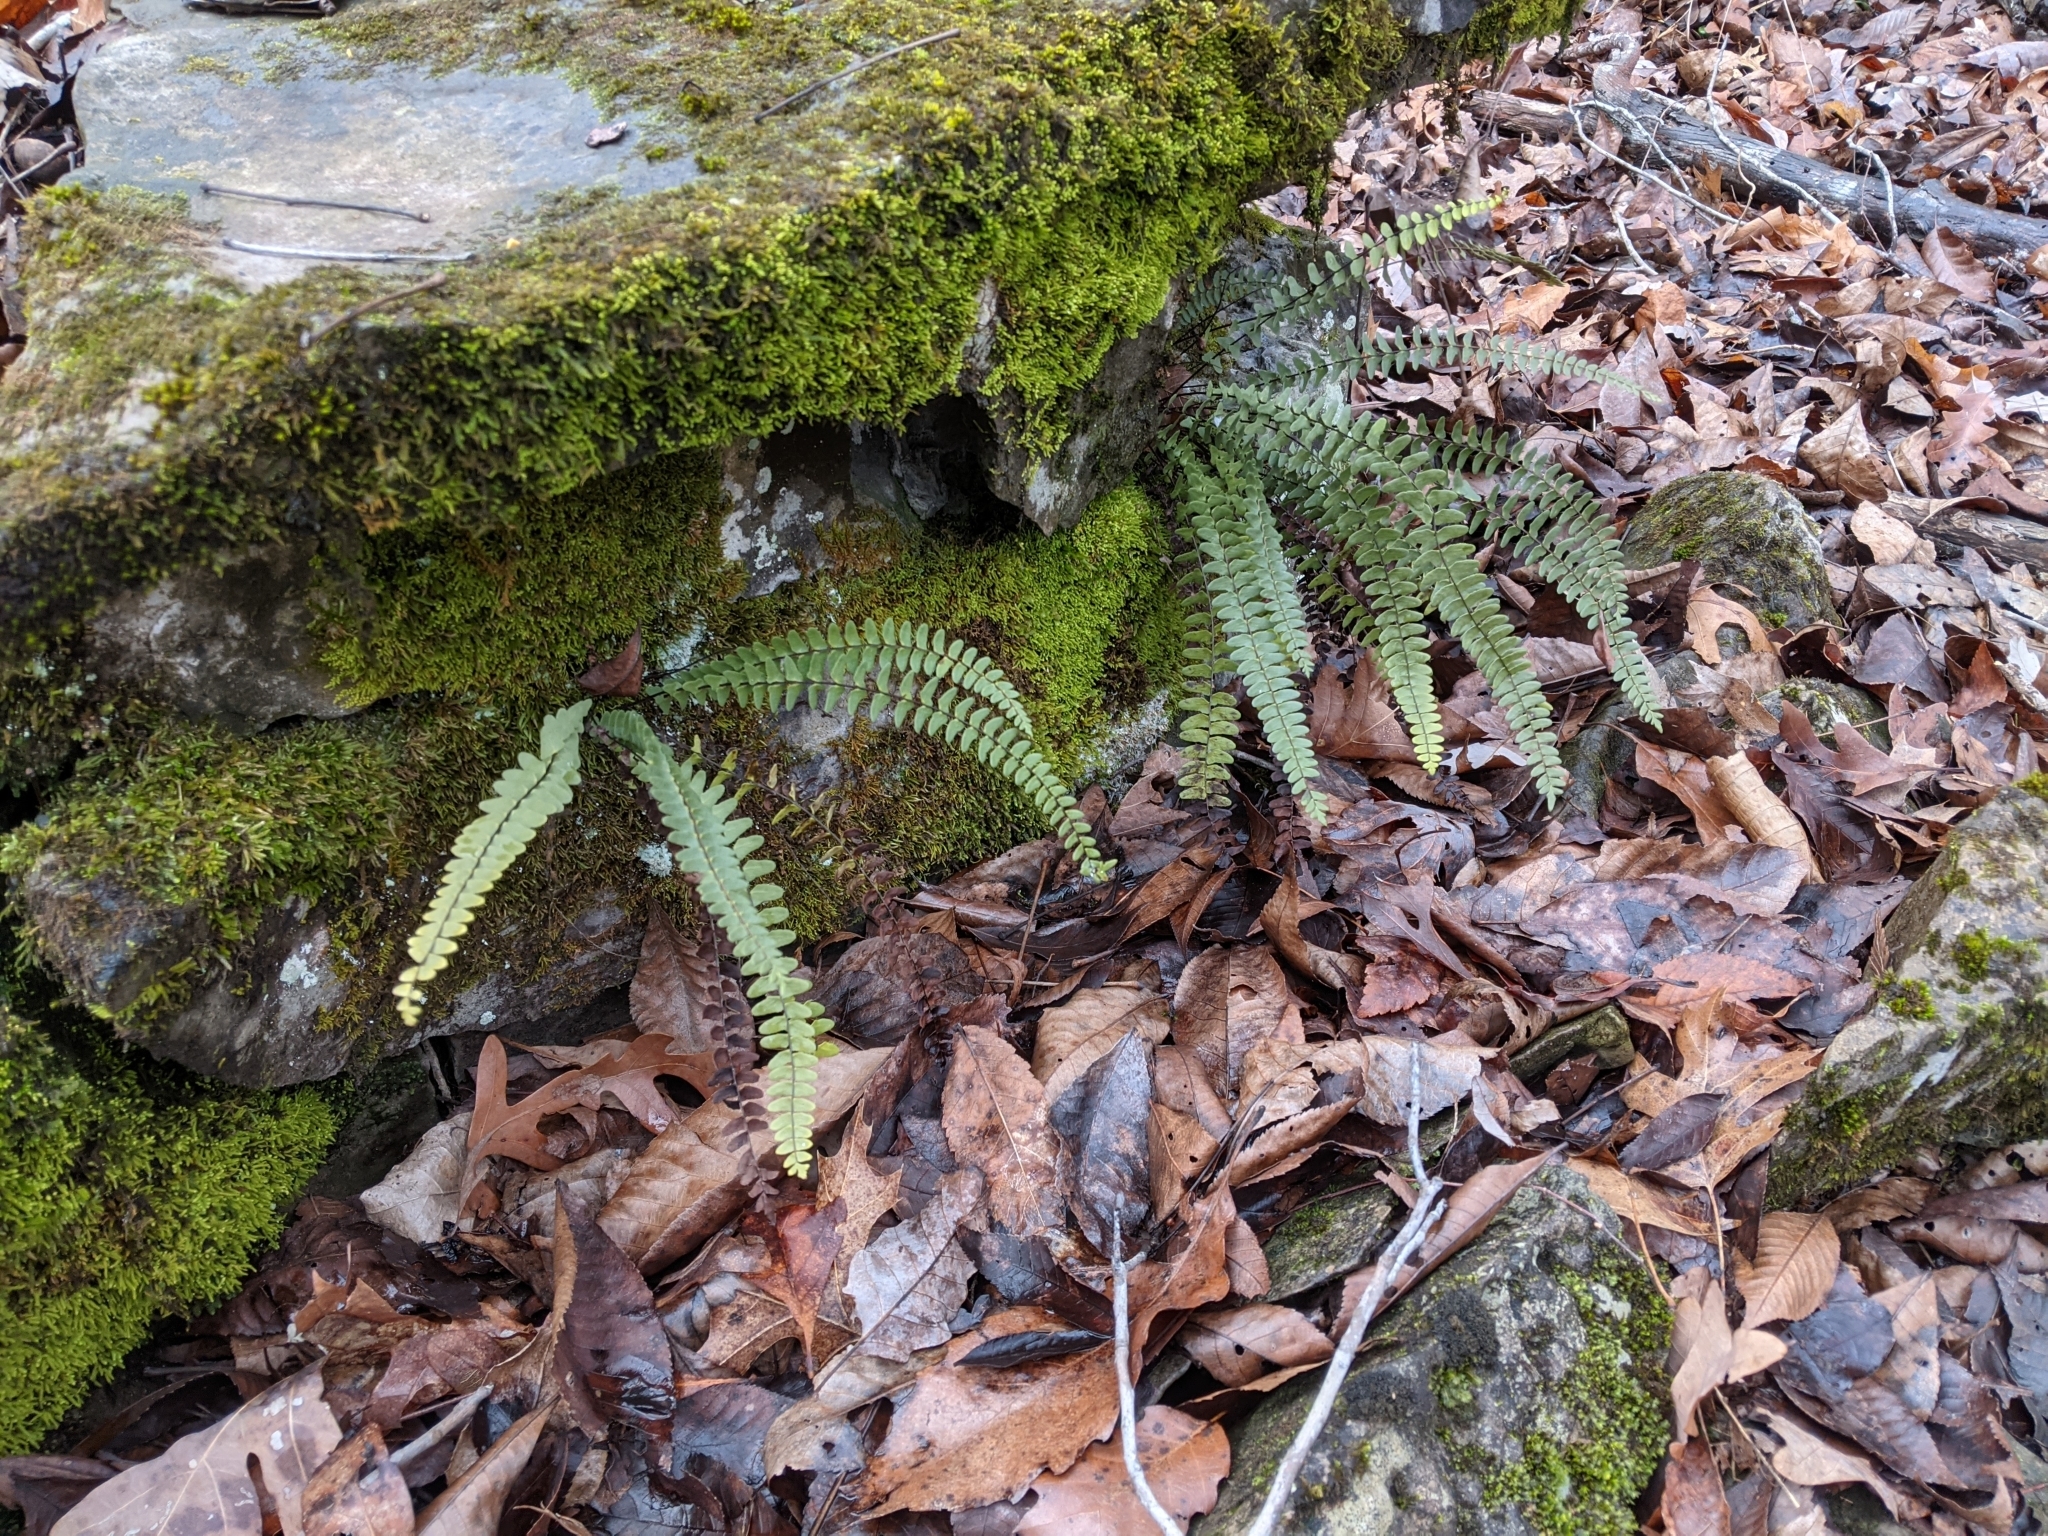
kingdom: Plantae
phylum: Tracheophyta
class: Polypodiopsida
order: Polypodiales
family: Aspleniaceae
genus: Asplenium
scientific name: Asplenium resiliens
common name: Blackstem spleenwort
